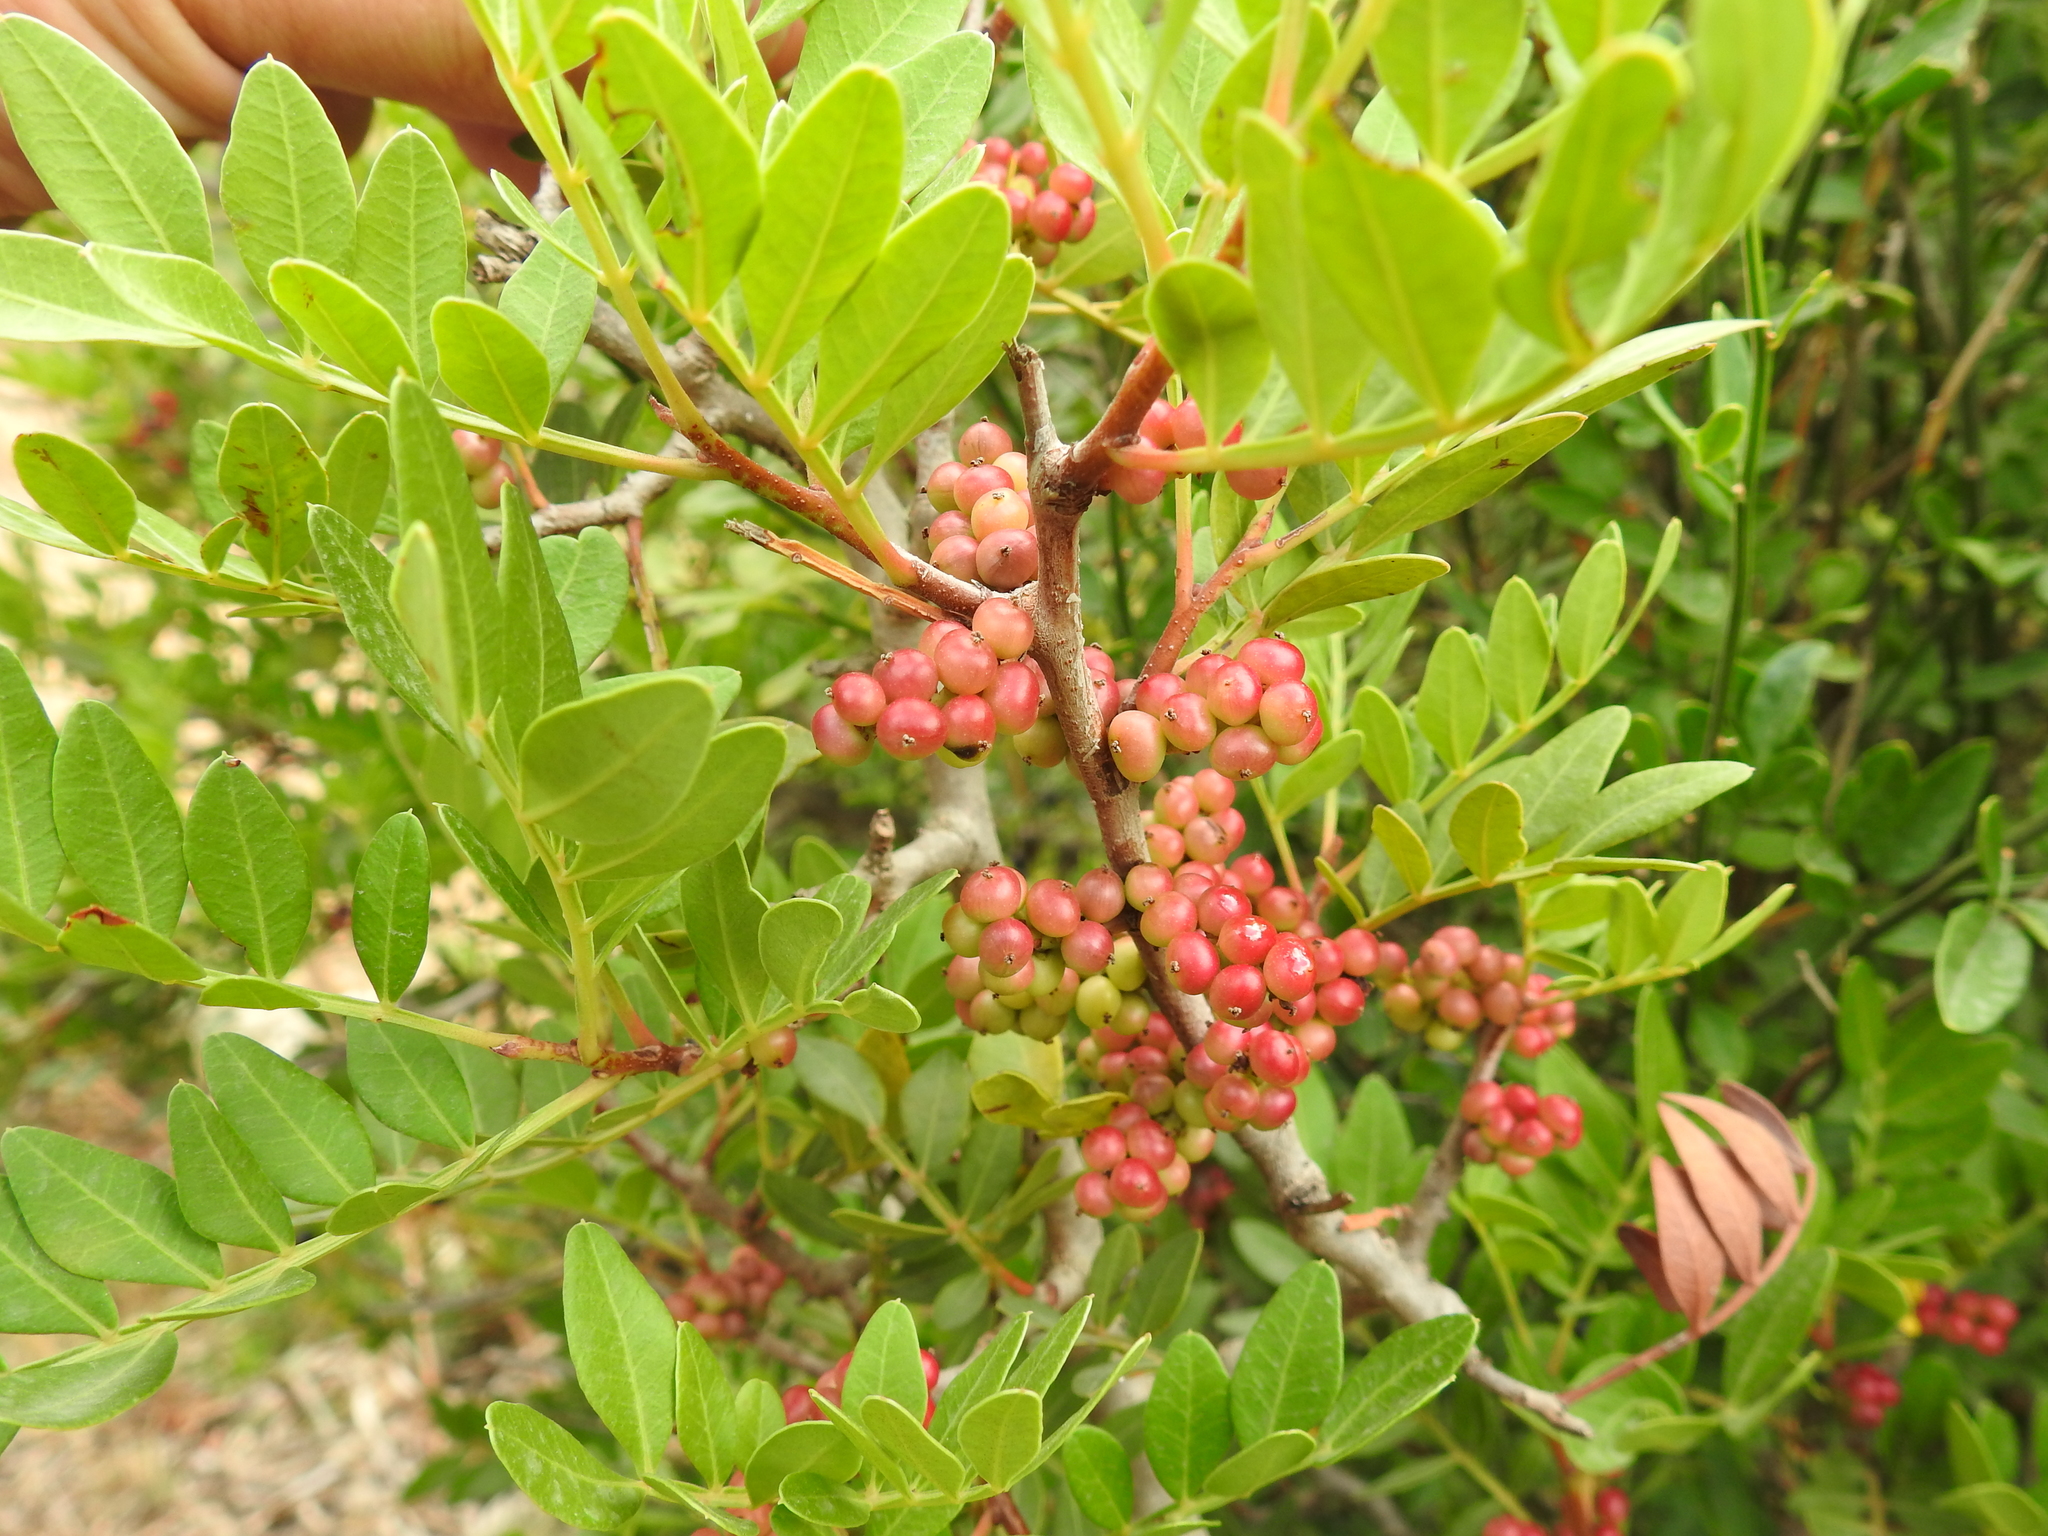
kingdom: Plantae
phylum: Tracheophyta
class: Magnoliopsida
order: Sapindales
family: Anacardiaceae
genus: Pistacia
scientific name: Pistacia lentiscus
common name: Lentisk
